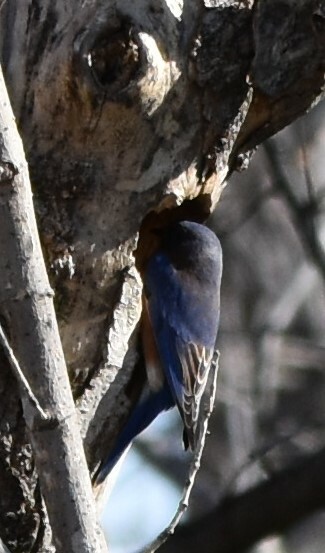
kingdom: Animalia
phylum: Chordata
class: Aves
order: Passeriformes
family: Turdidae
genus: Sialia
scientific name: Sialia sialis
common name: Eastern bluebird
